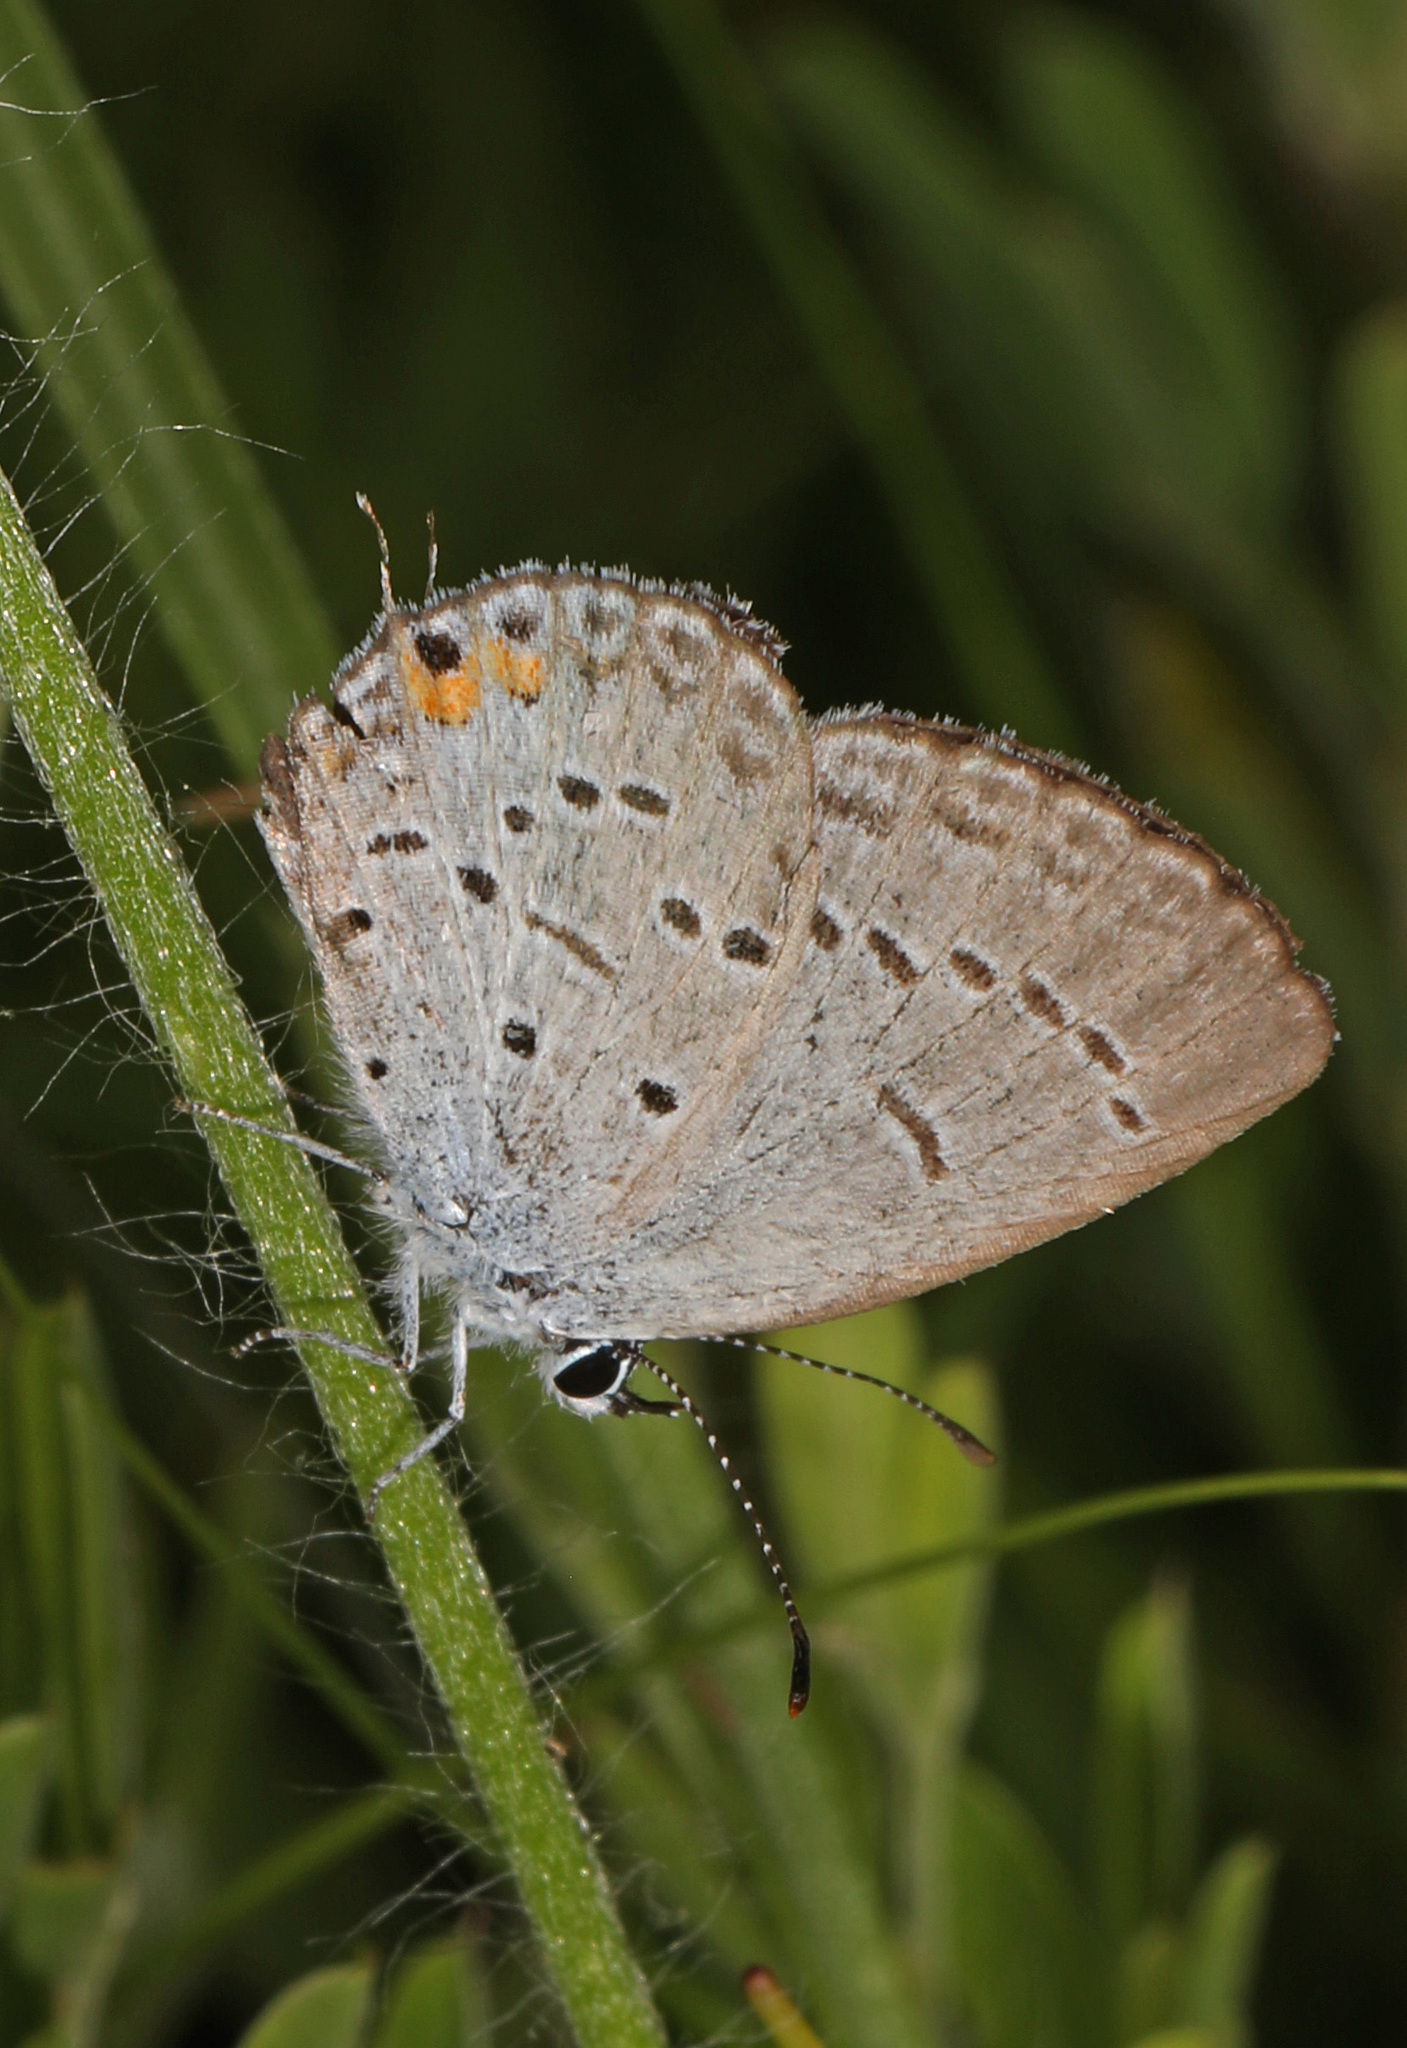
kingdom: Animalia
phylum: Arthropoda
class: Insecta
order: Lepidoptera
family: Lycaenidae
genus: Elkalyce
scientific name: Elkalyce comyntas
